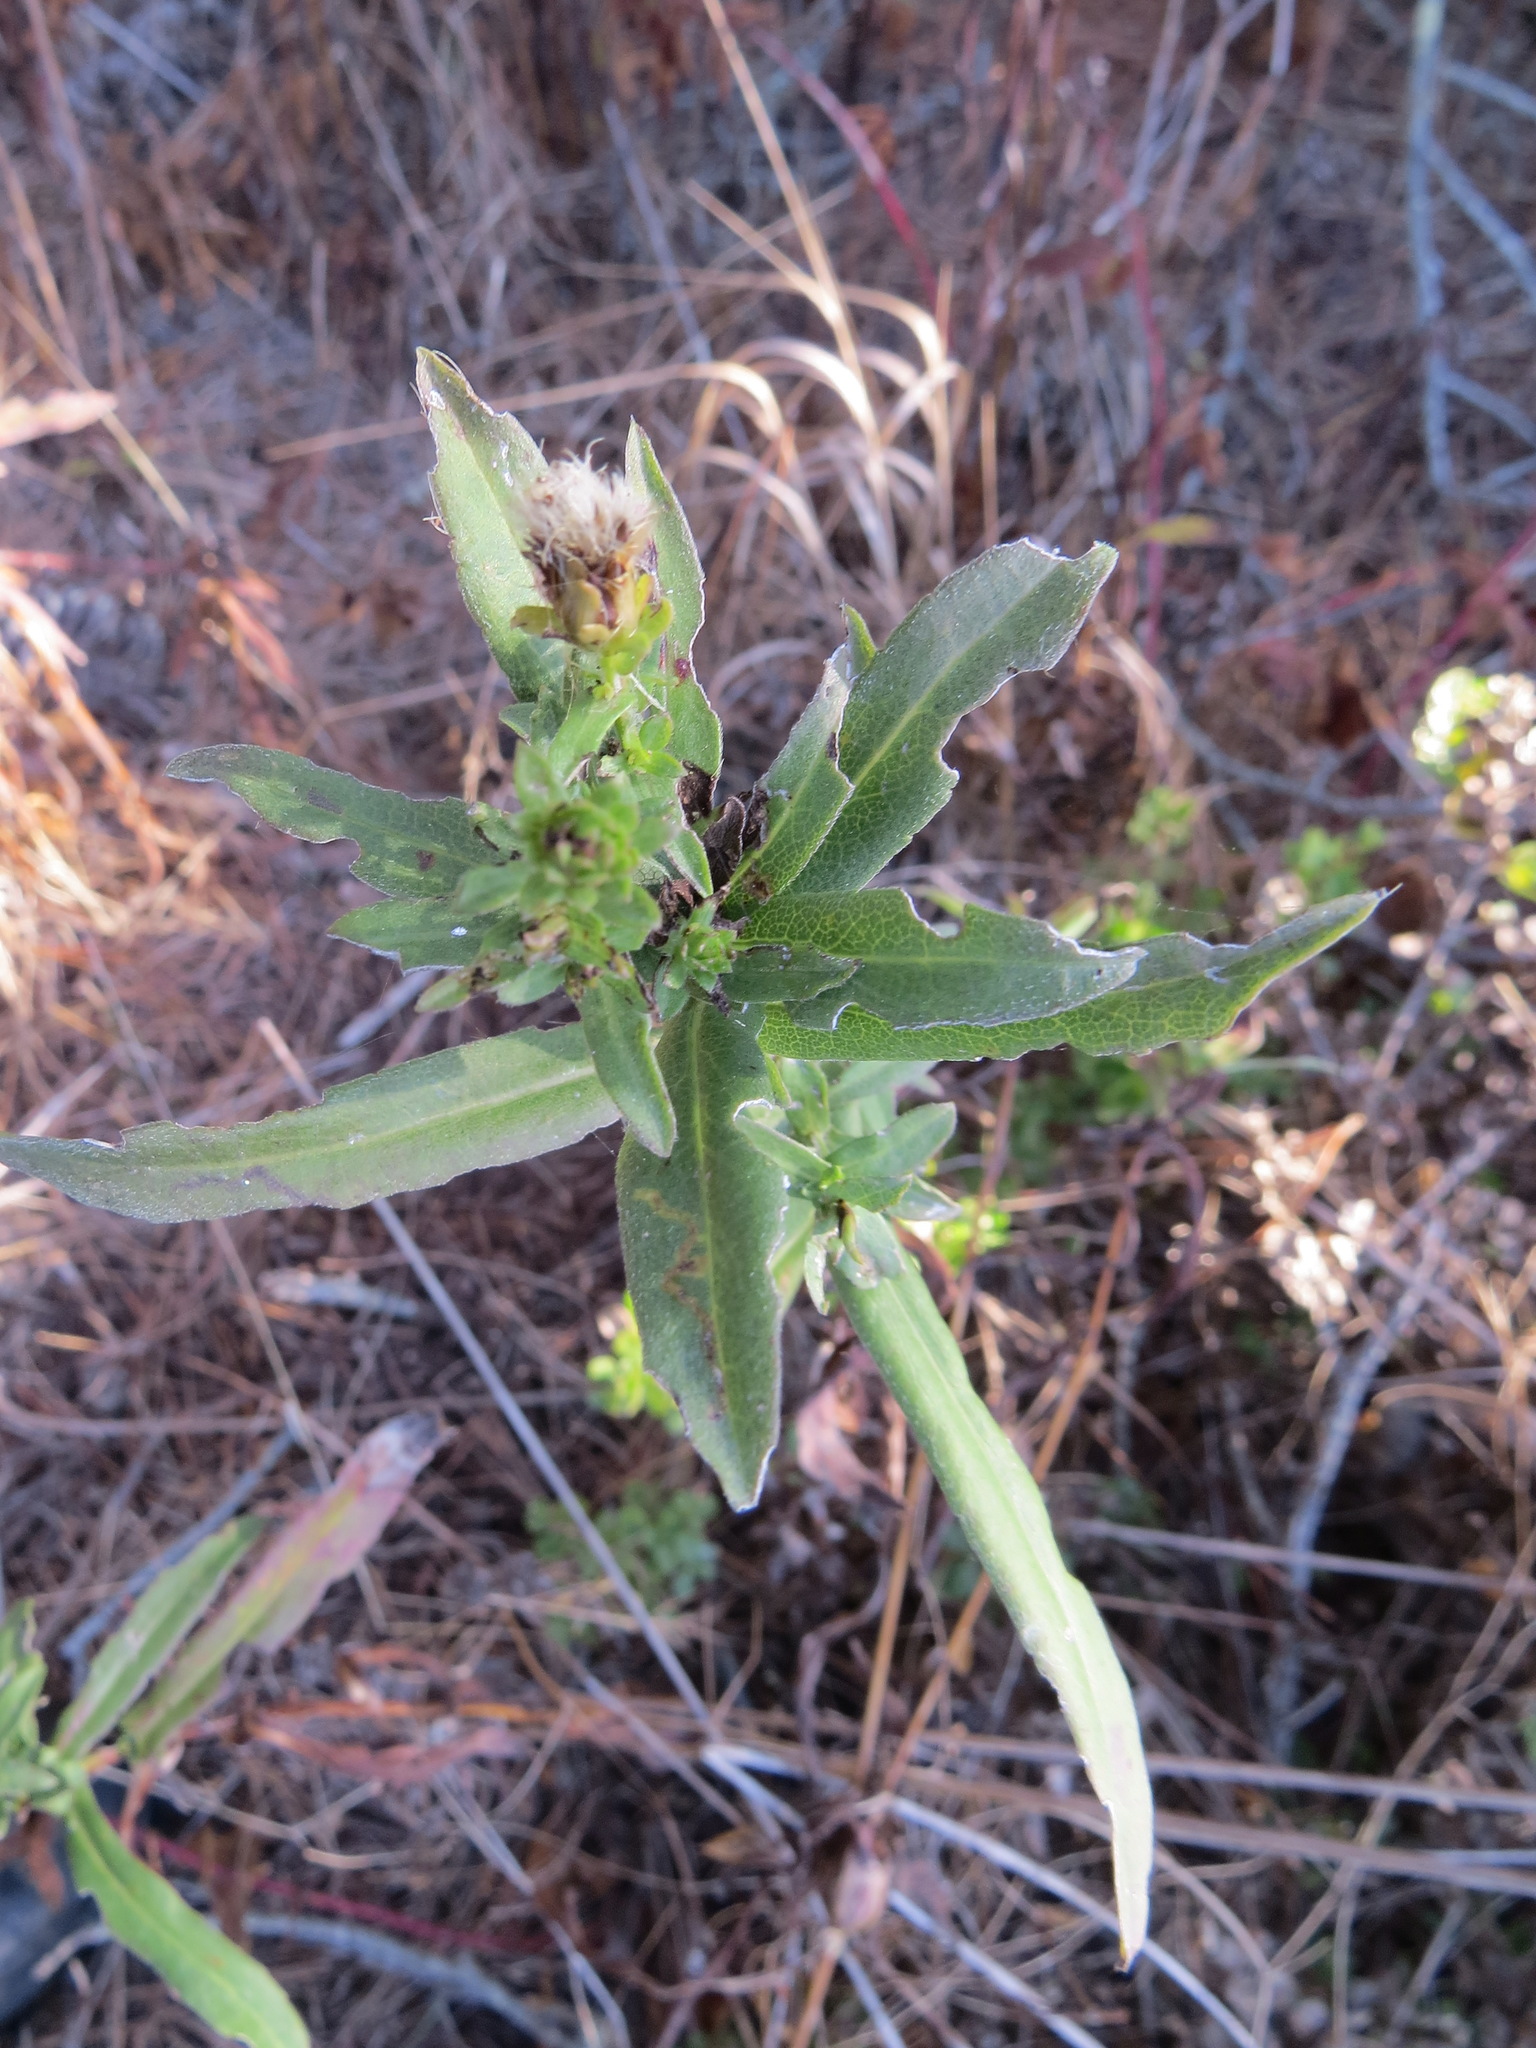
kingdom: Animalia
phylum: Arthropoda
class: Insecta
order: Lepidoptera
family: Gelechiidae
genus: Gnorimoschema
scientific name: Gnorimoschema subterranea
